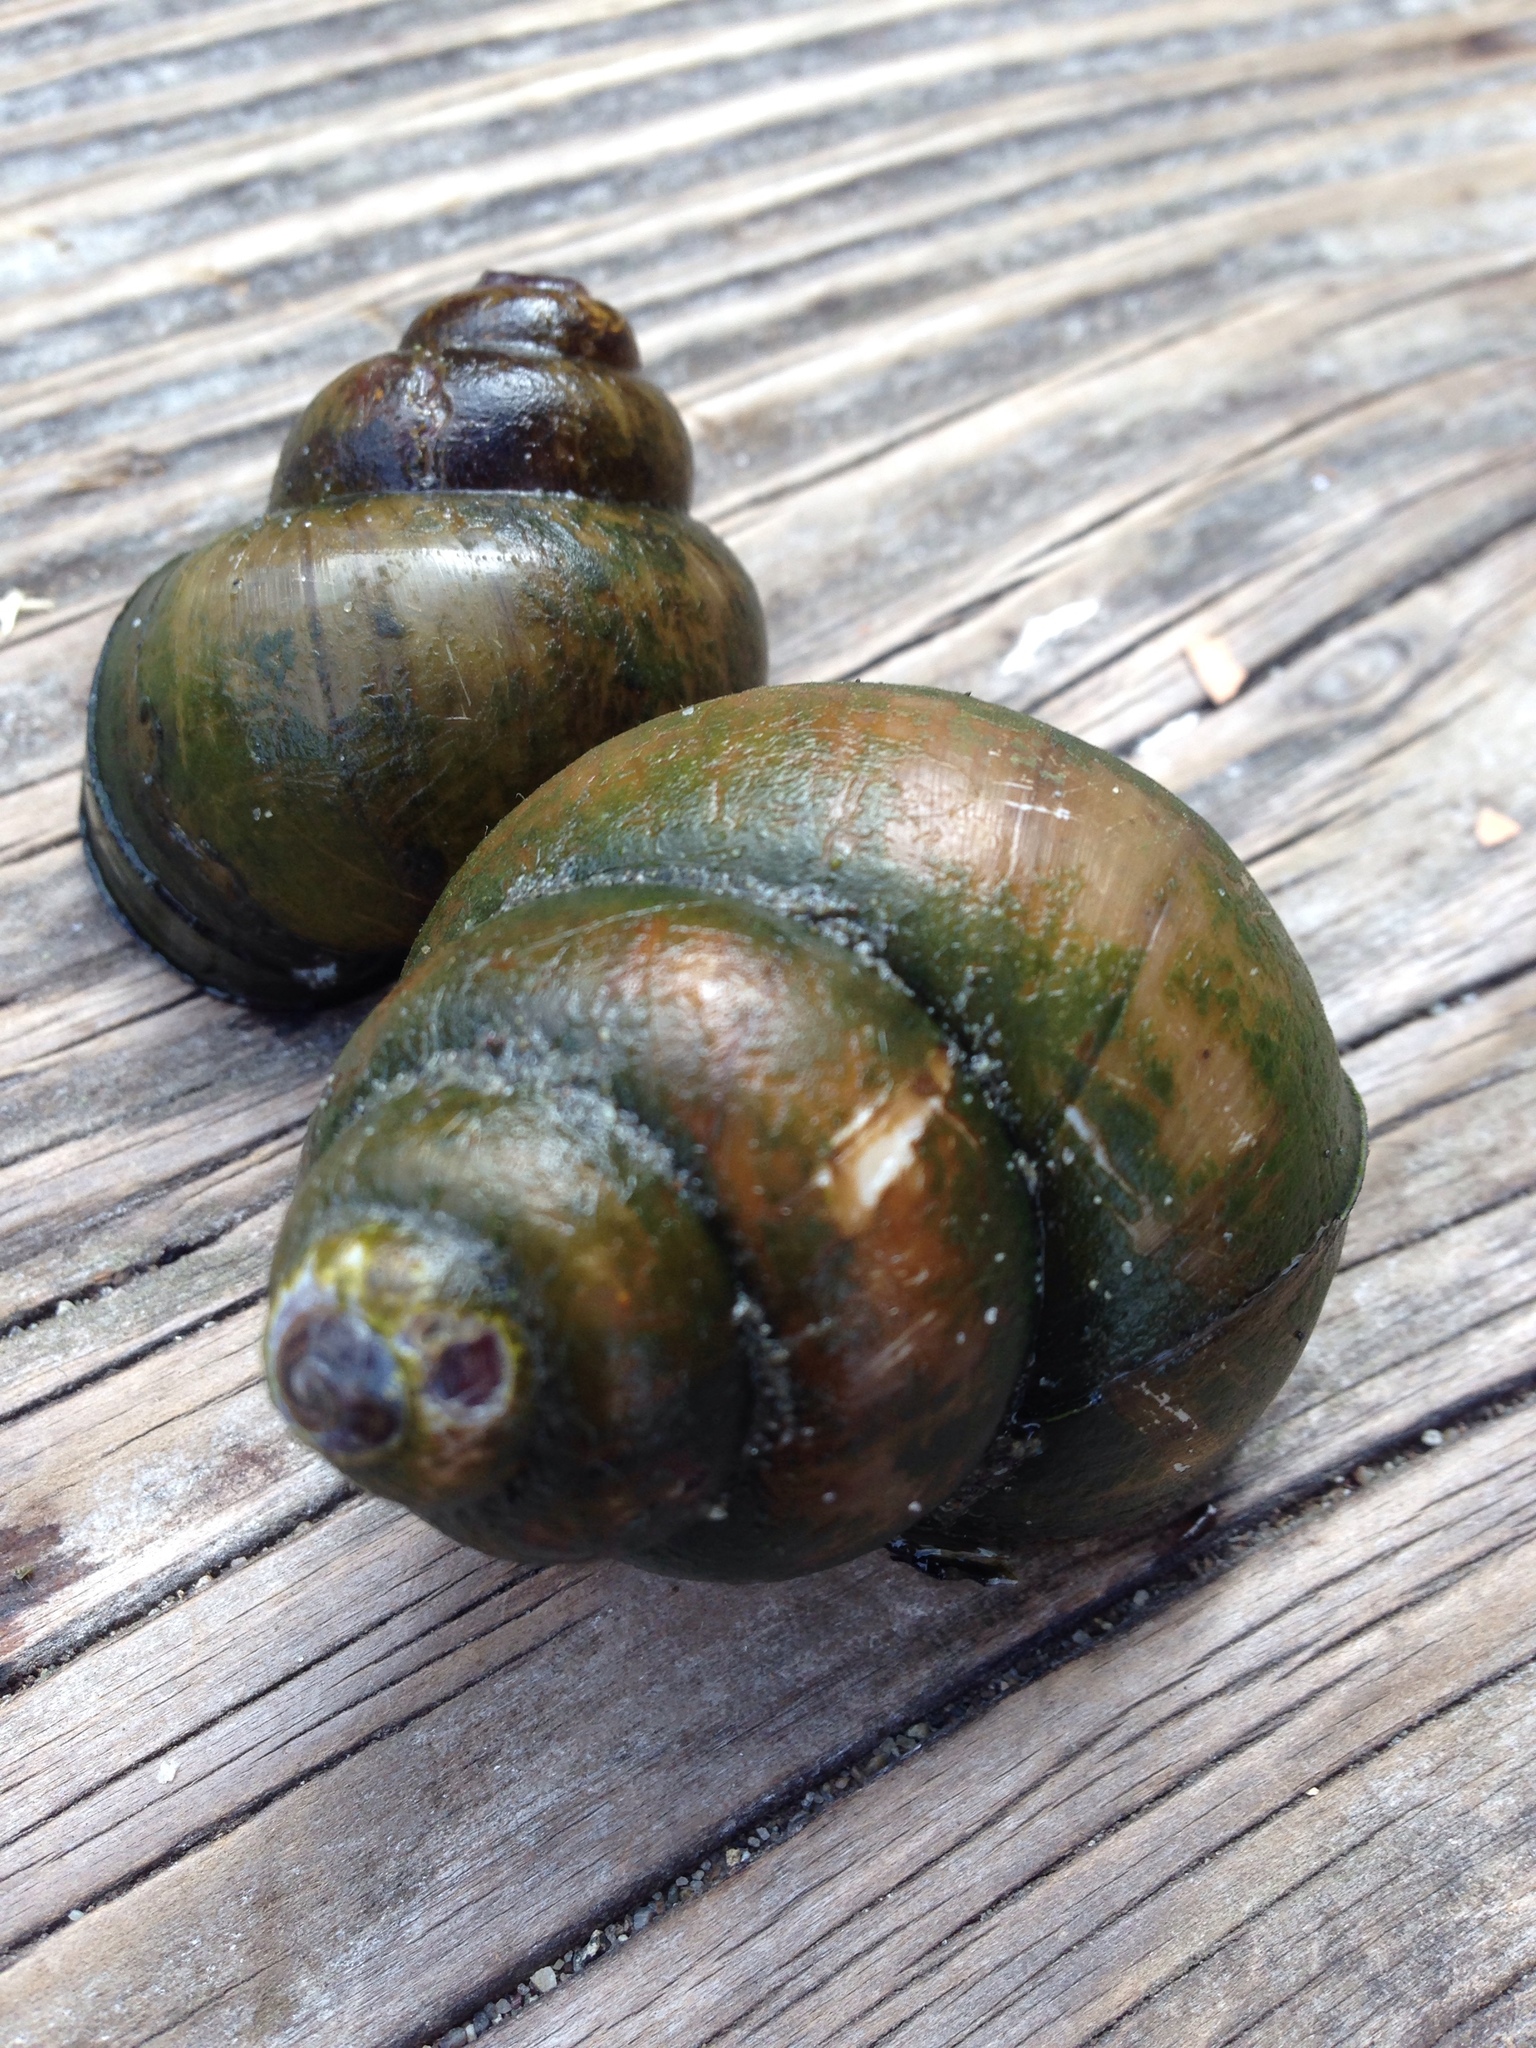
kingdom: Animalia
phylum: Mollusca
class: Gastropoda
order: Architaenioglossa
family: Viviparidae
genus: Cipangopaludina
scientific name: Cipangopaludina chinensis
